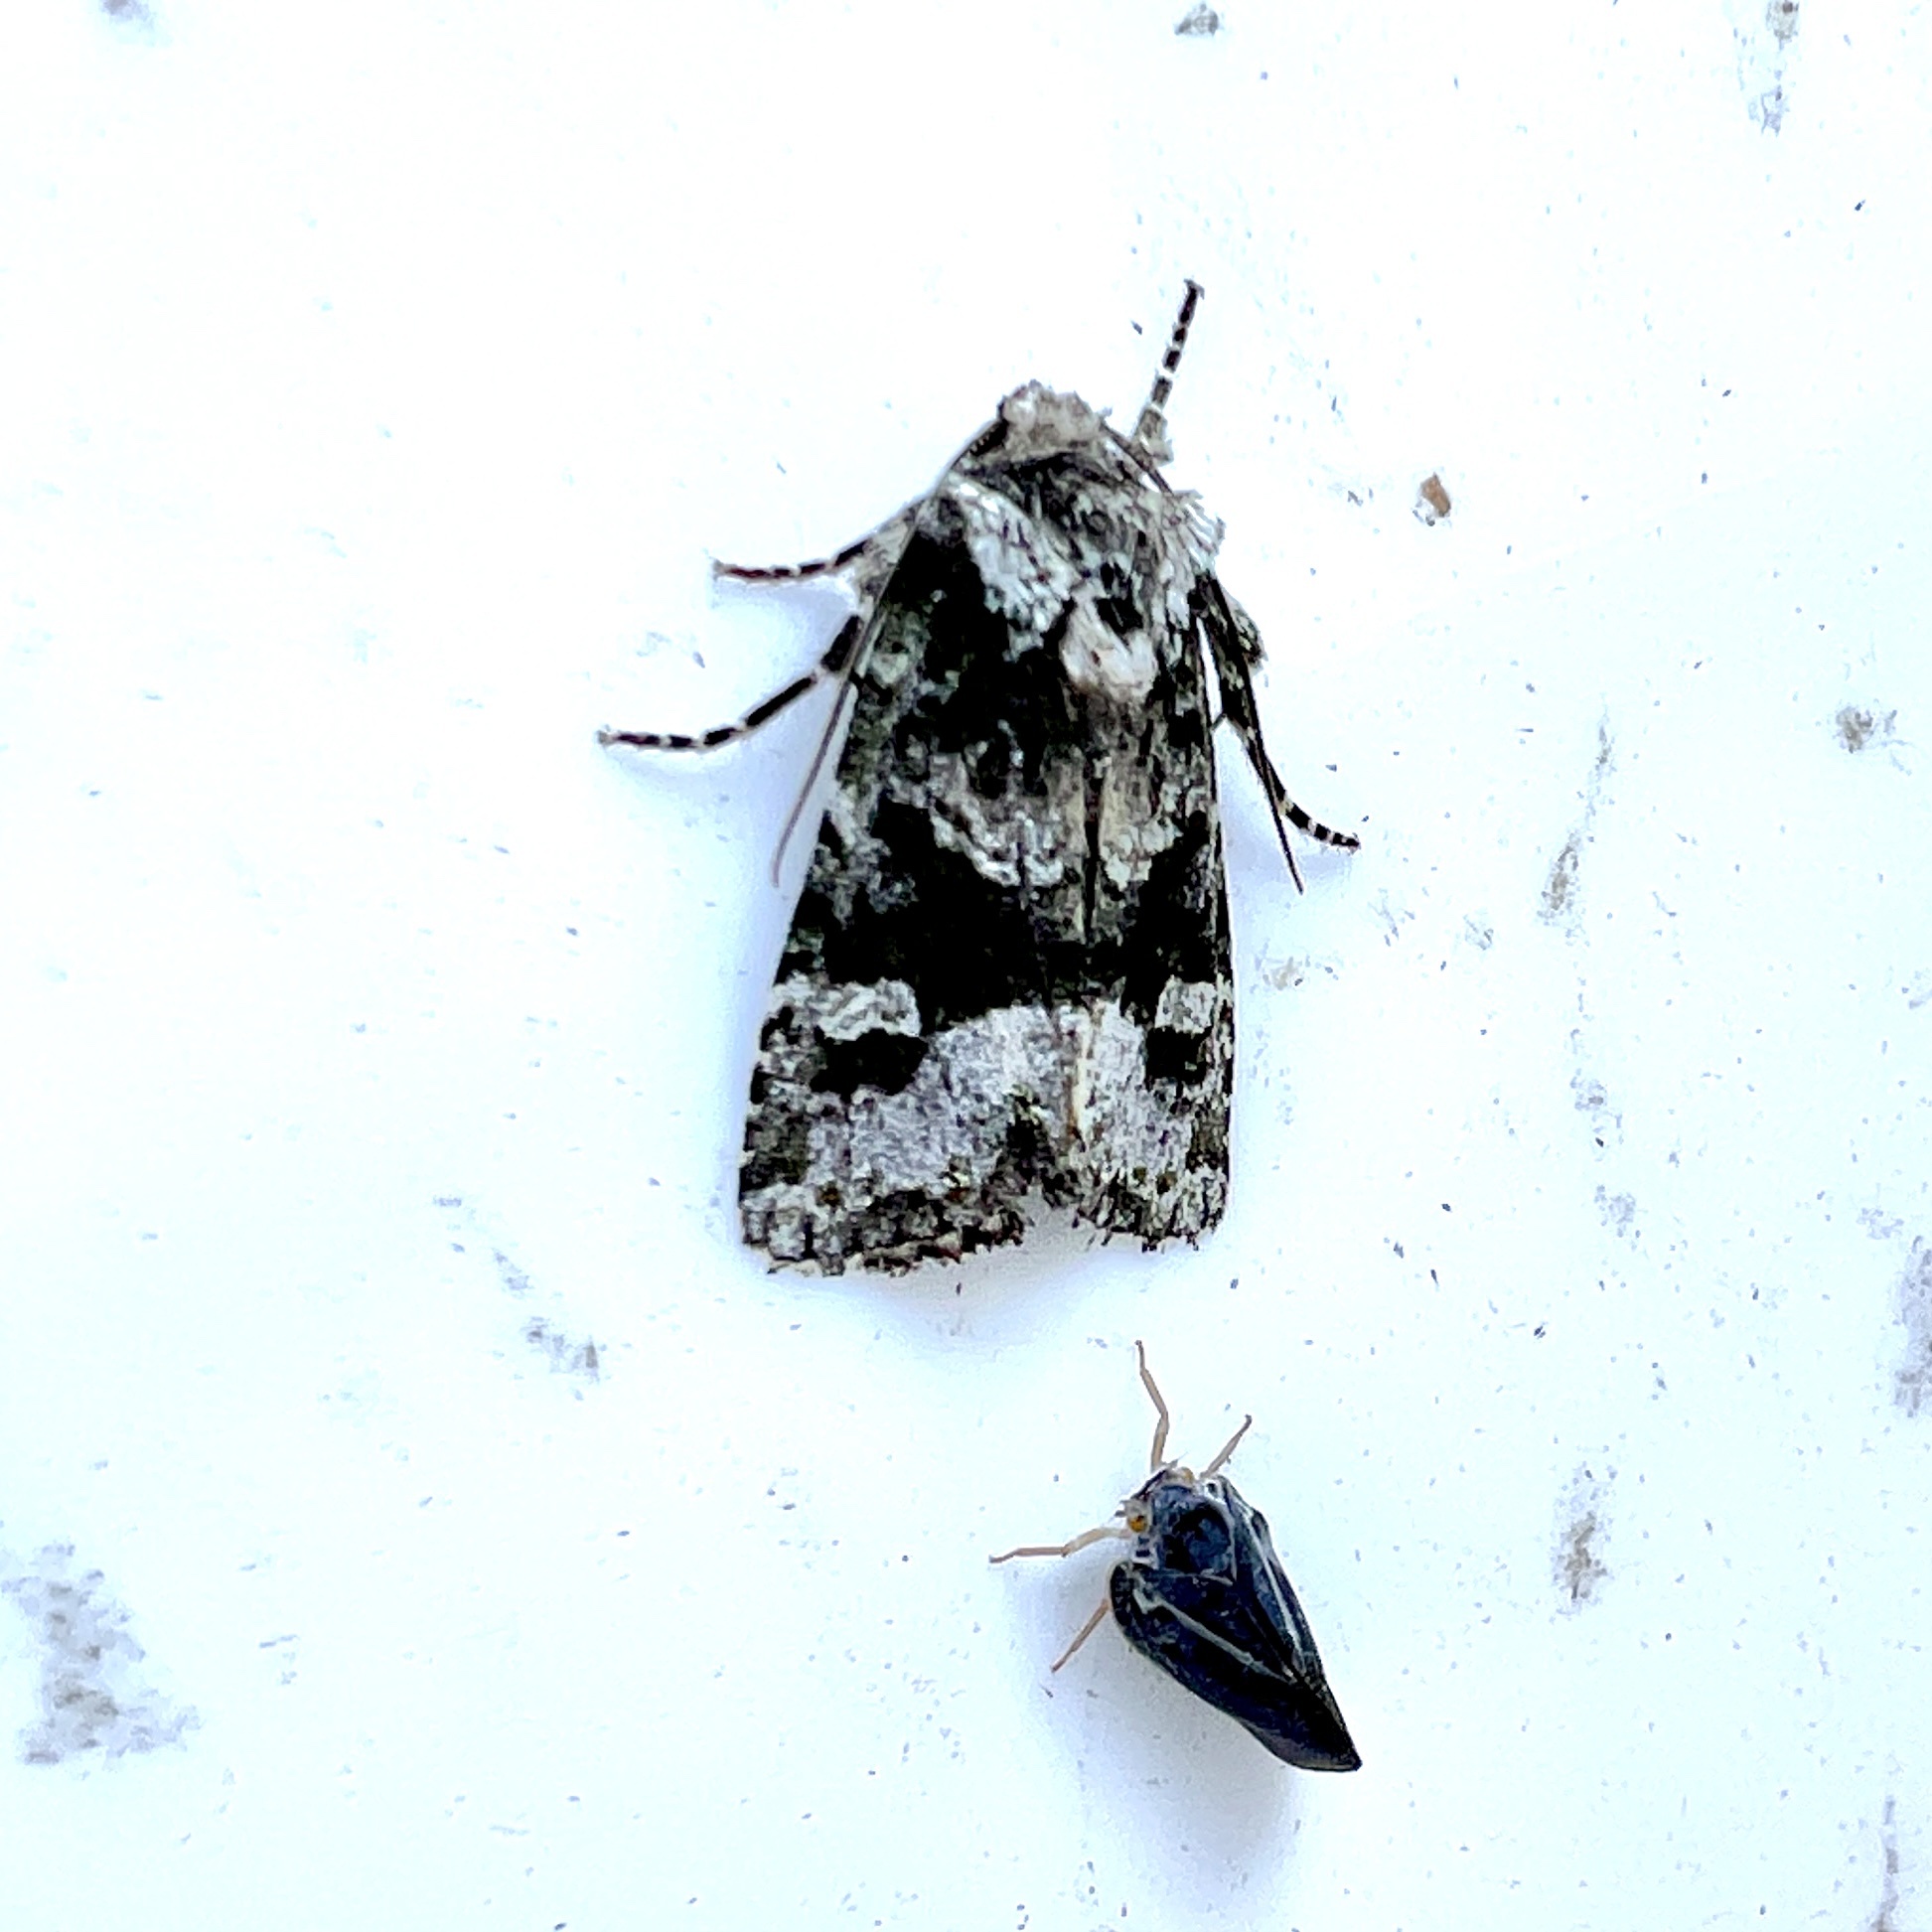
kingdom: Animalia
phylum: Arthropoda
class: Insecta
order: Lepidoptera
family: Noctuidae
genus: Lacinipolia
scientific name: Lacinipolia olivacea
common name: Olive arches moth
